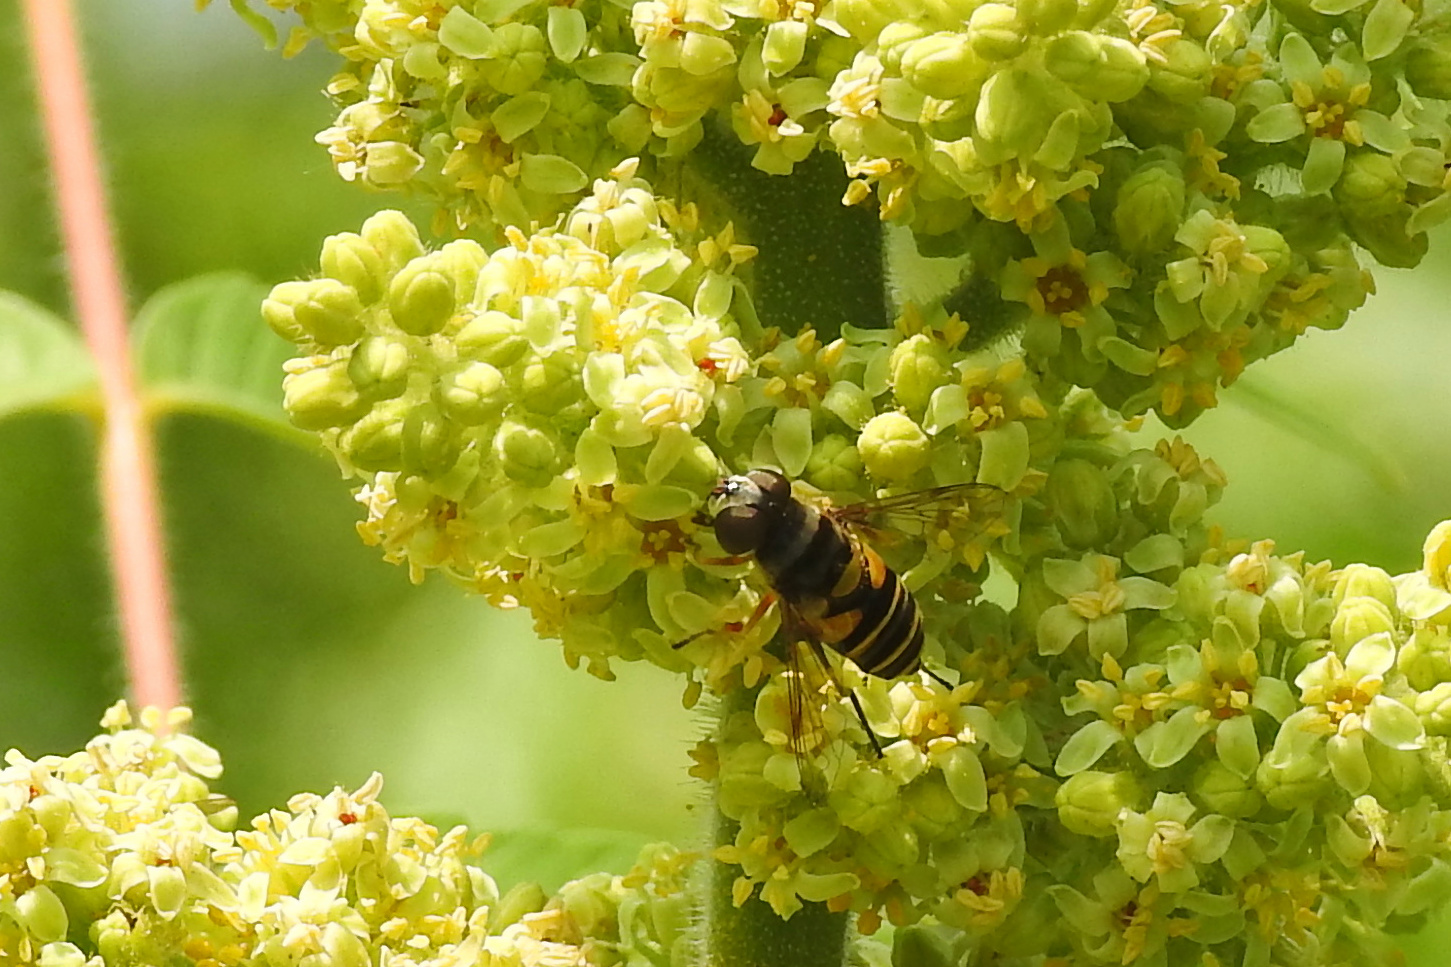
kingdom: Animalia
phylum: Arthropoda
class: Insecta
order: Diptera
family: Syrphidae
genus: Eristalis
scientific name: Eristalis transversa
